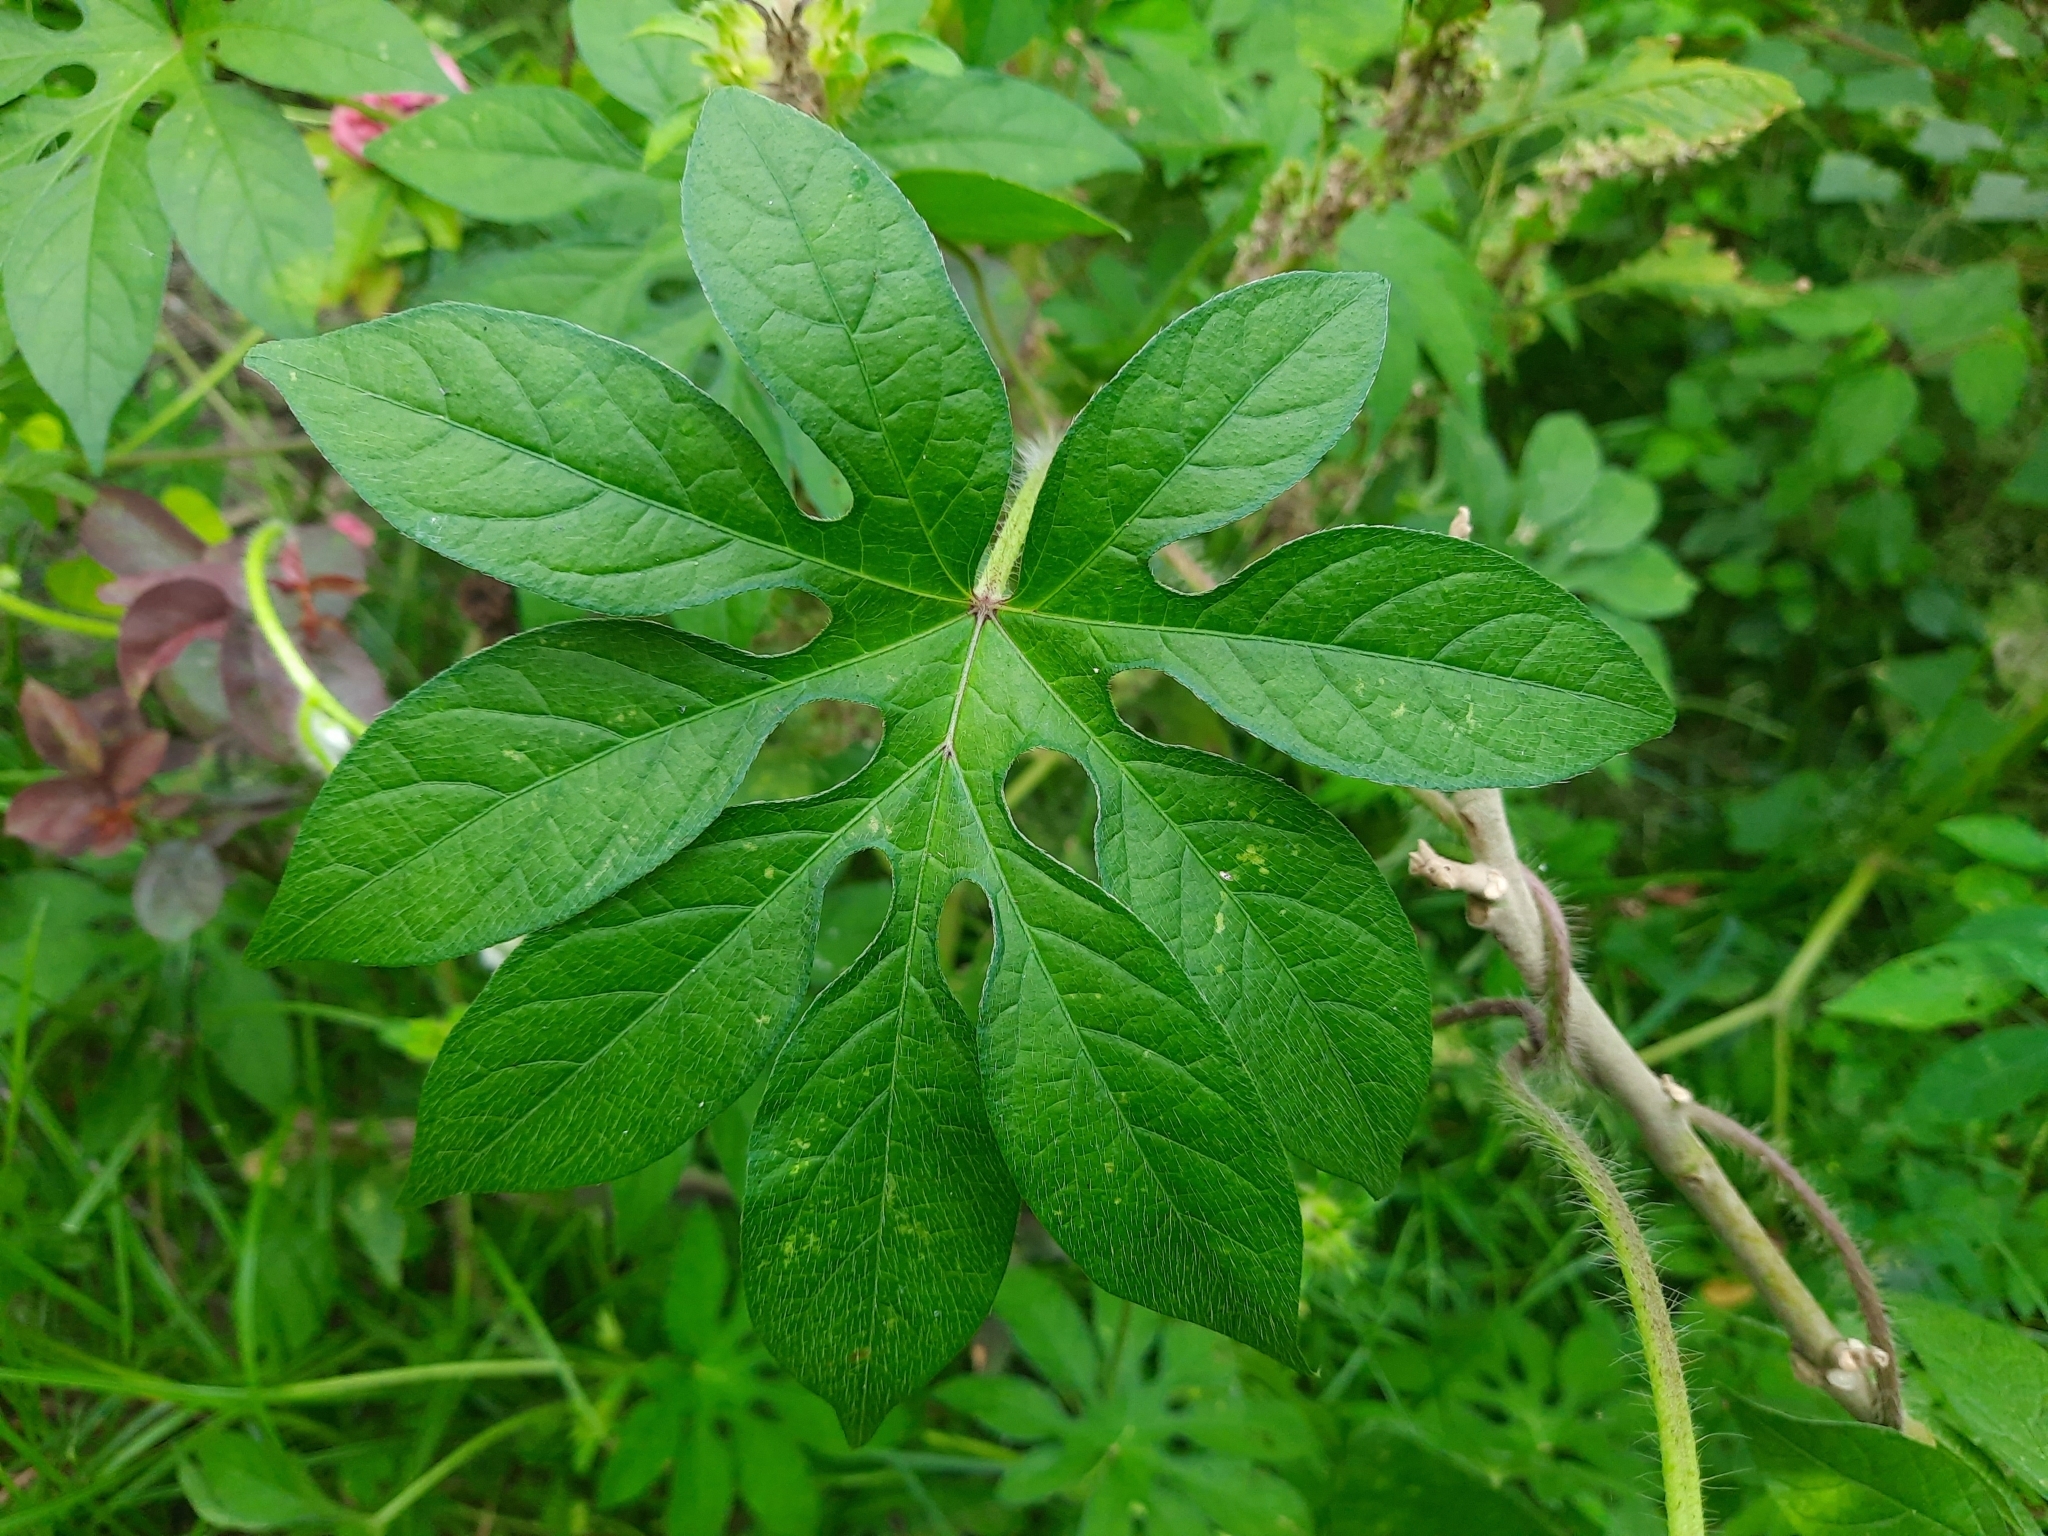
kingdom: Plantae
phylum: Tracheophyta
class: Magnoliopsida
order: Solanales
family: Convolvulaceae
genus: Ipomoea
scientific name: Ipomoea pes-tigridis
